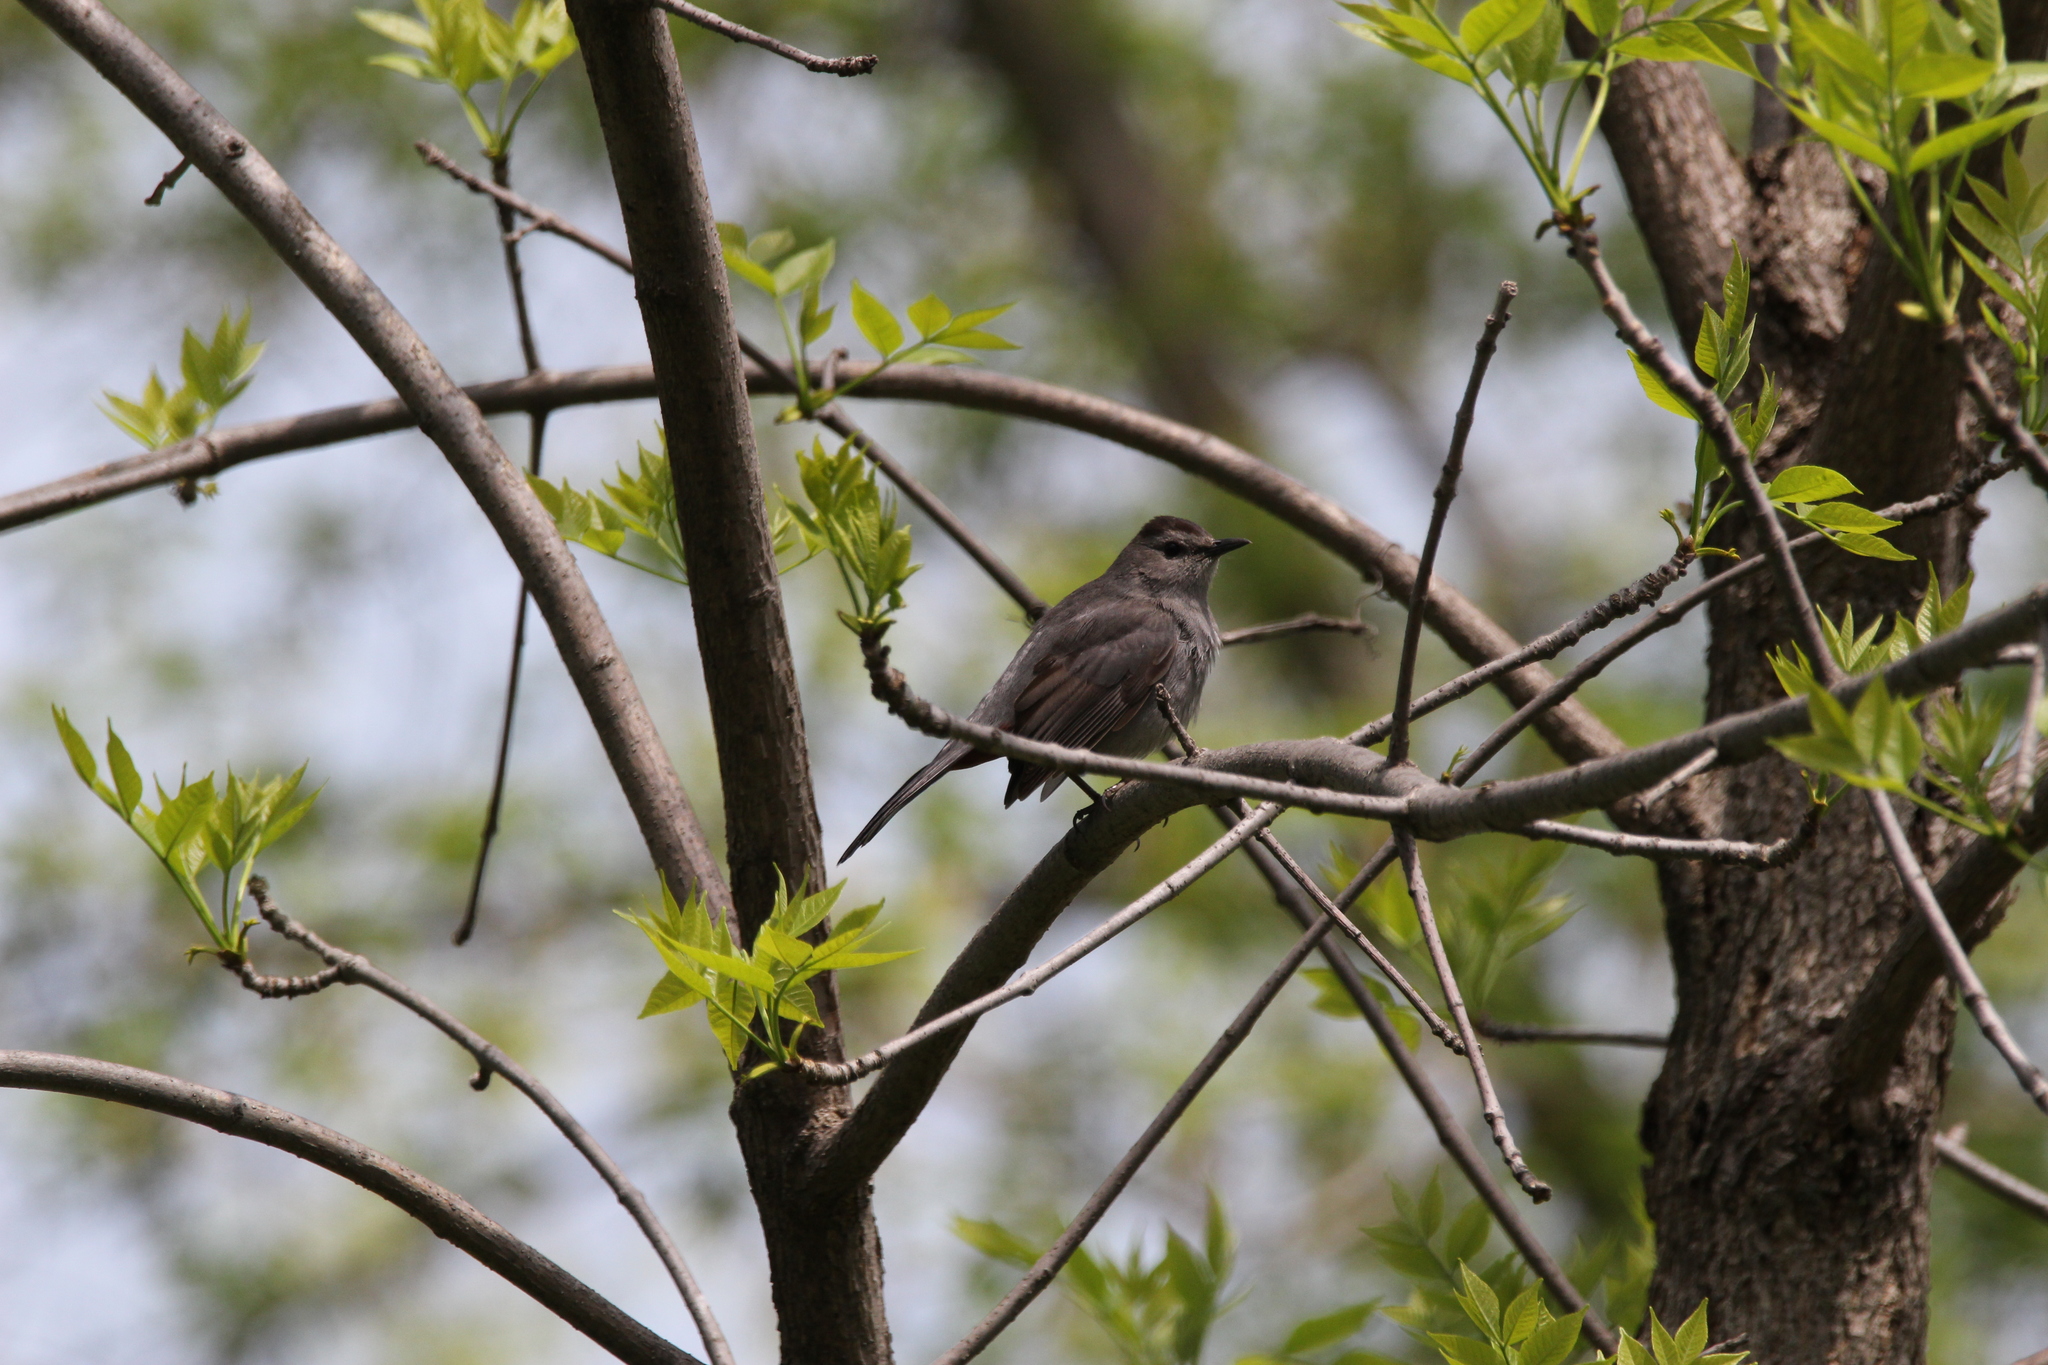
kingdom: Animalia
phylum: Chordata
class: Aves
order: Passeriformes
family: Mimidae
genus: Dumetella
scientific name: Dumetella carolinensis
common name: Gray catbird
